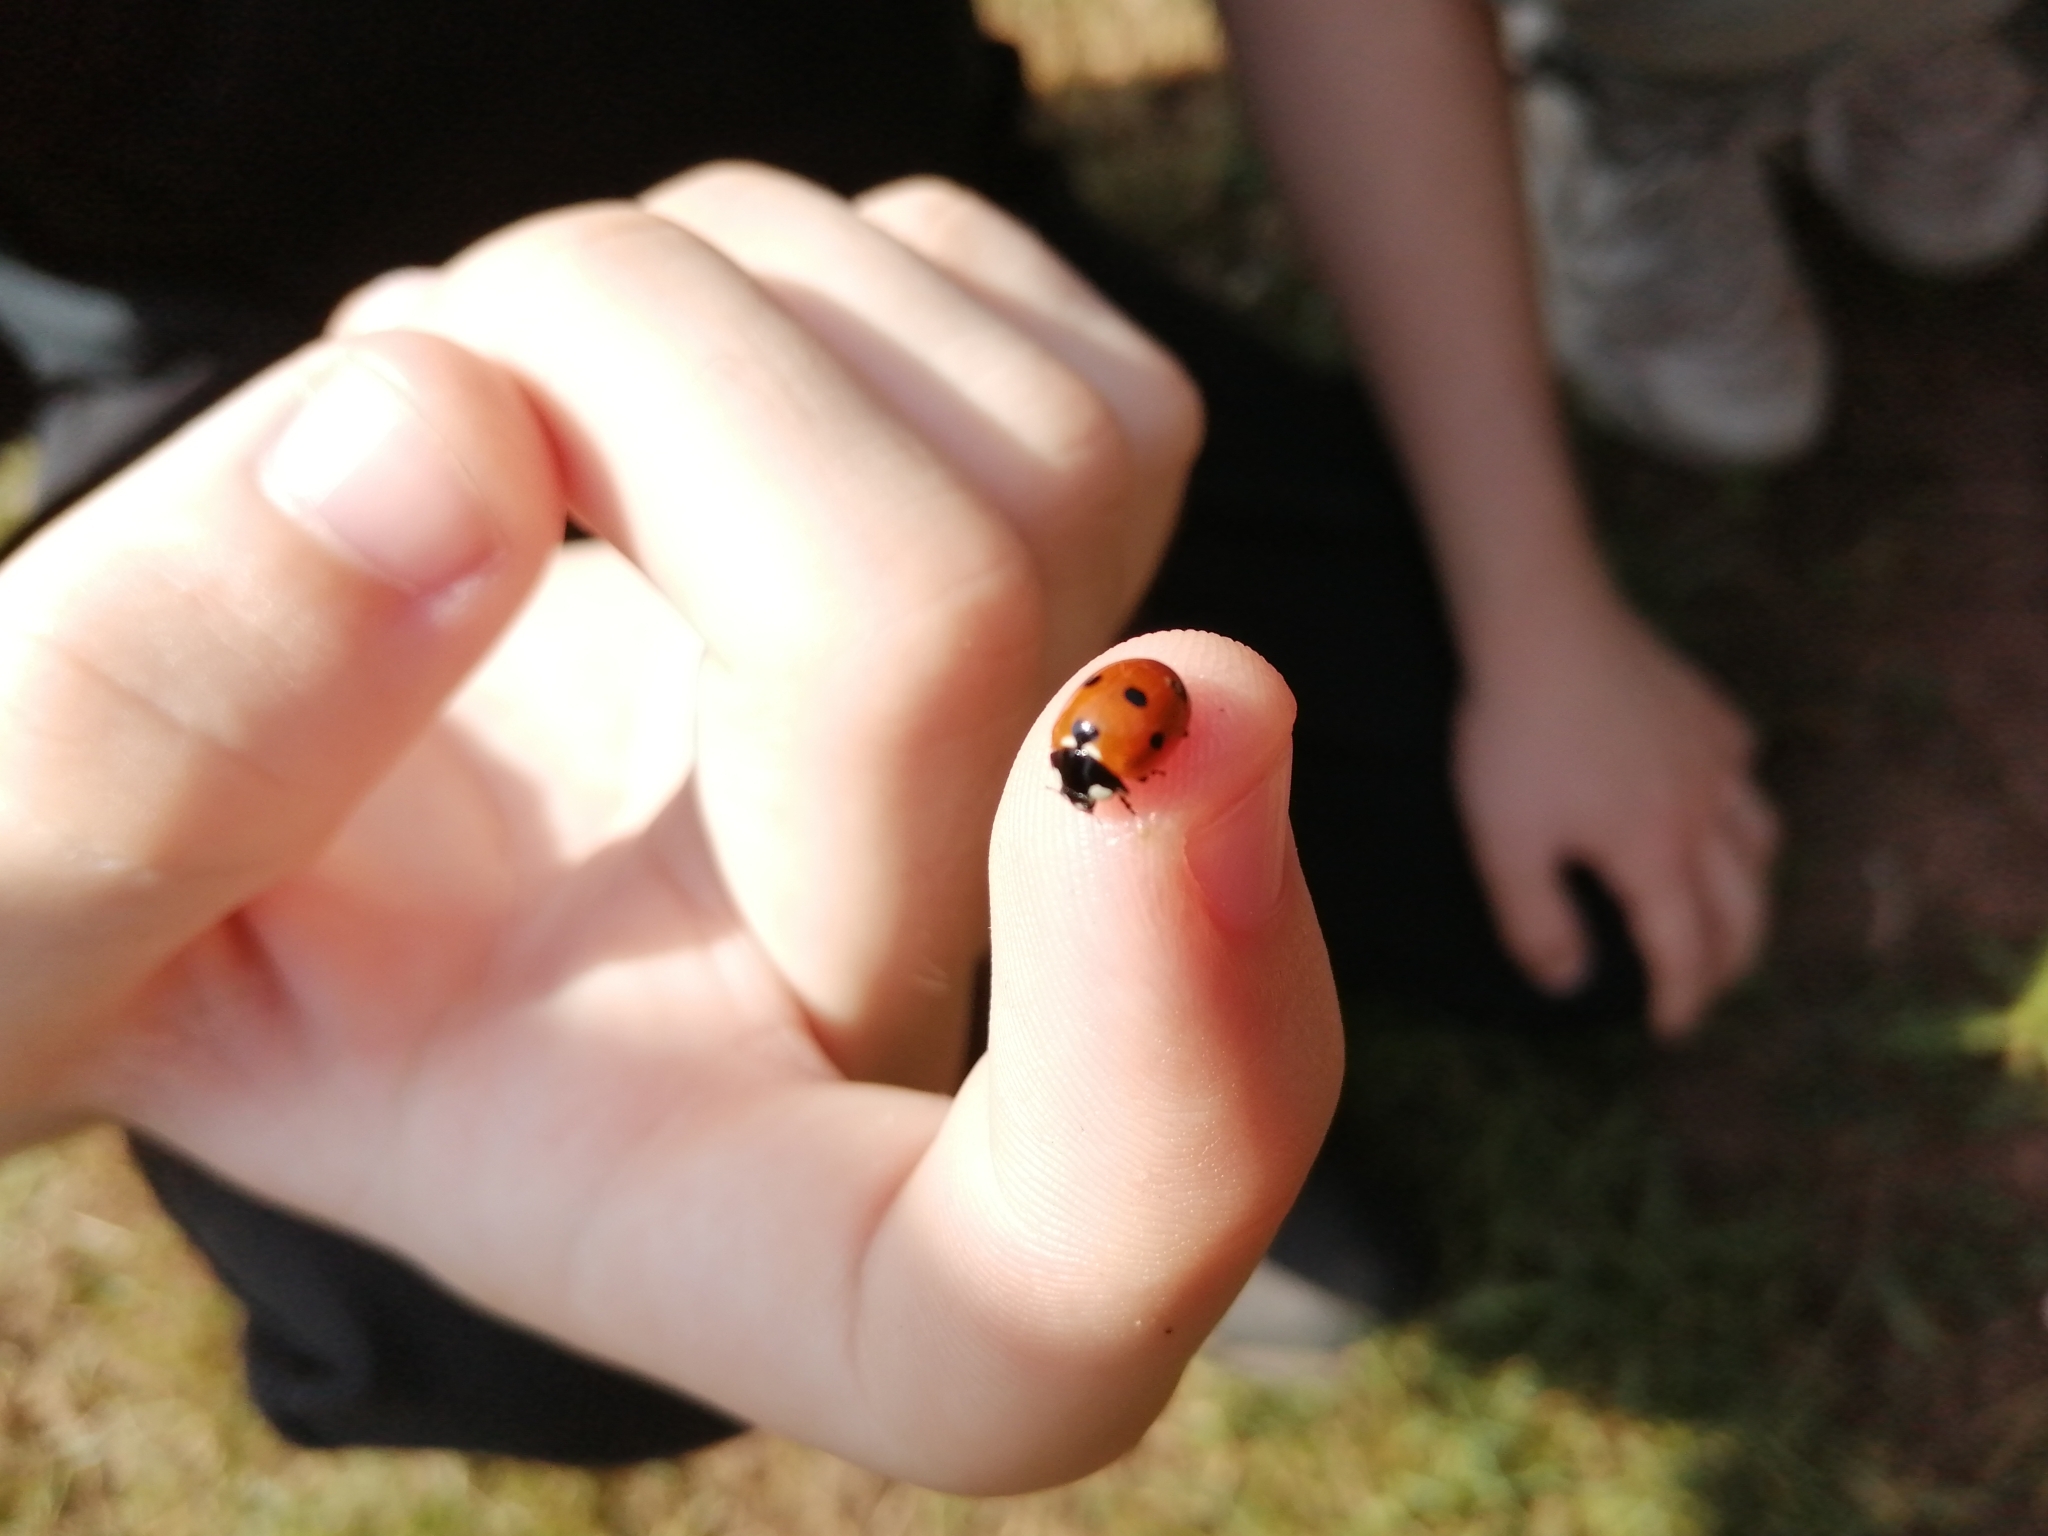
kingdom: Animalia
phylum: Arthropoda
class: Insecta
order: Coleoptera
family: Coccinellidae
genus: Coccinella
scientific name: Coccinella septempunctata
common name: Sevenspotted lady beetle
